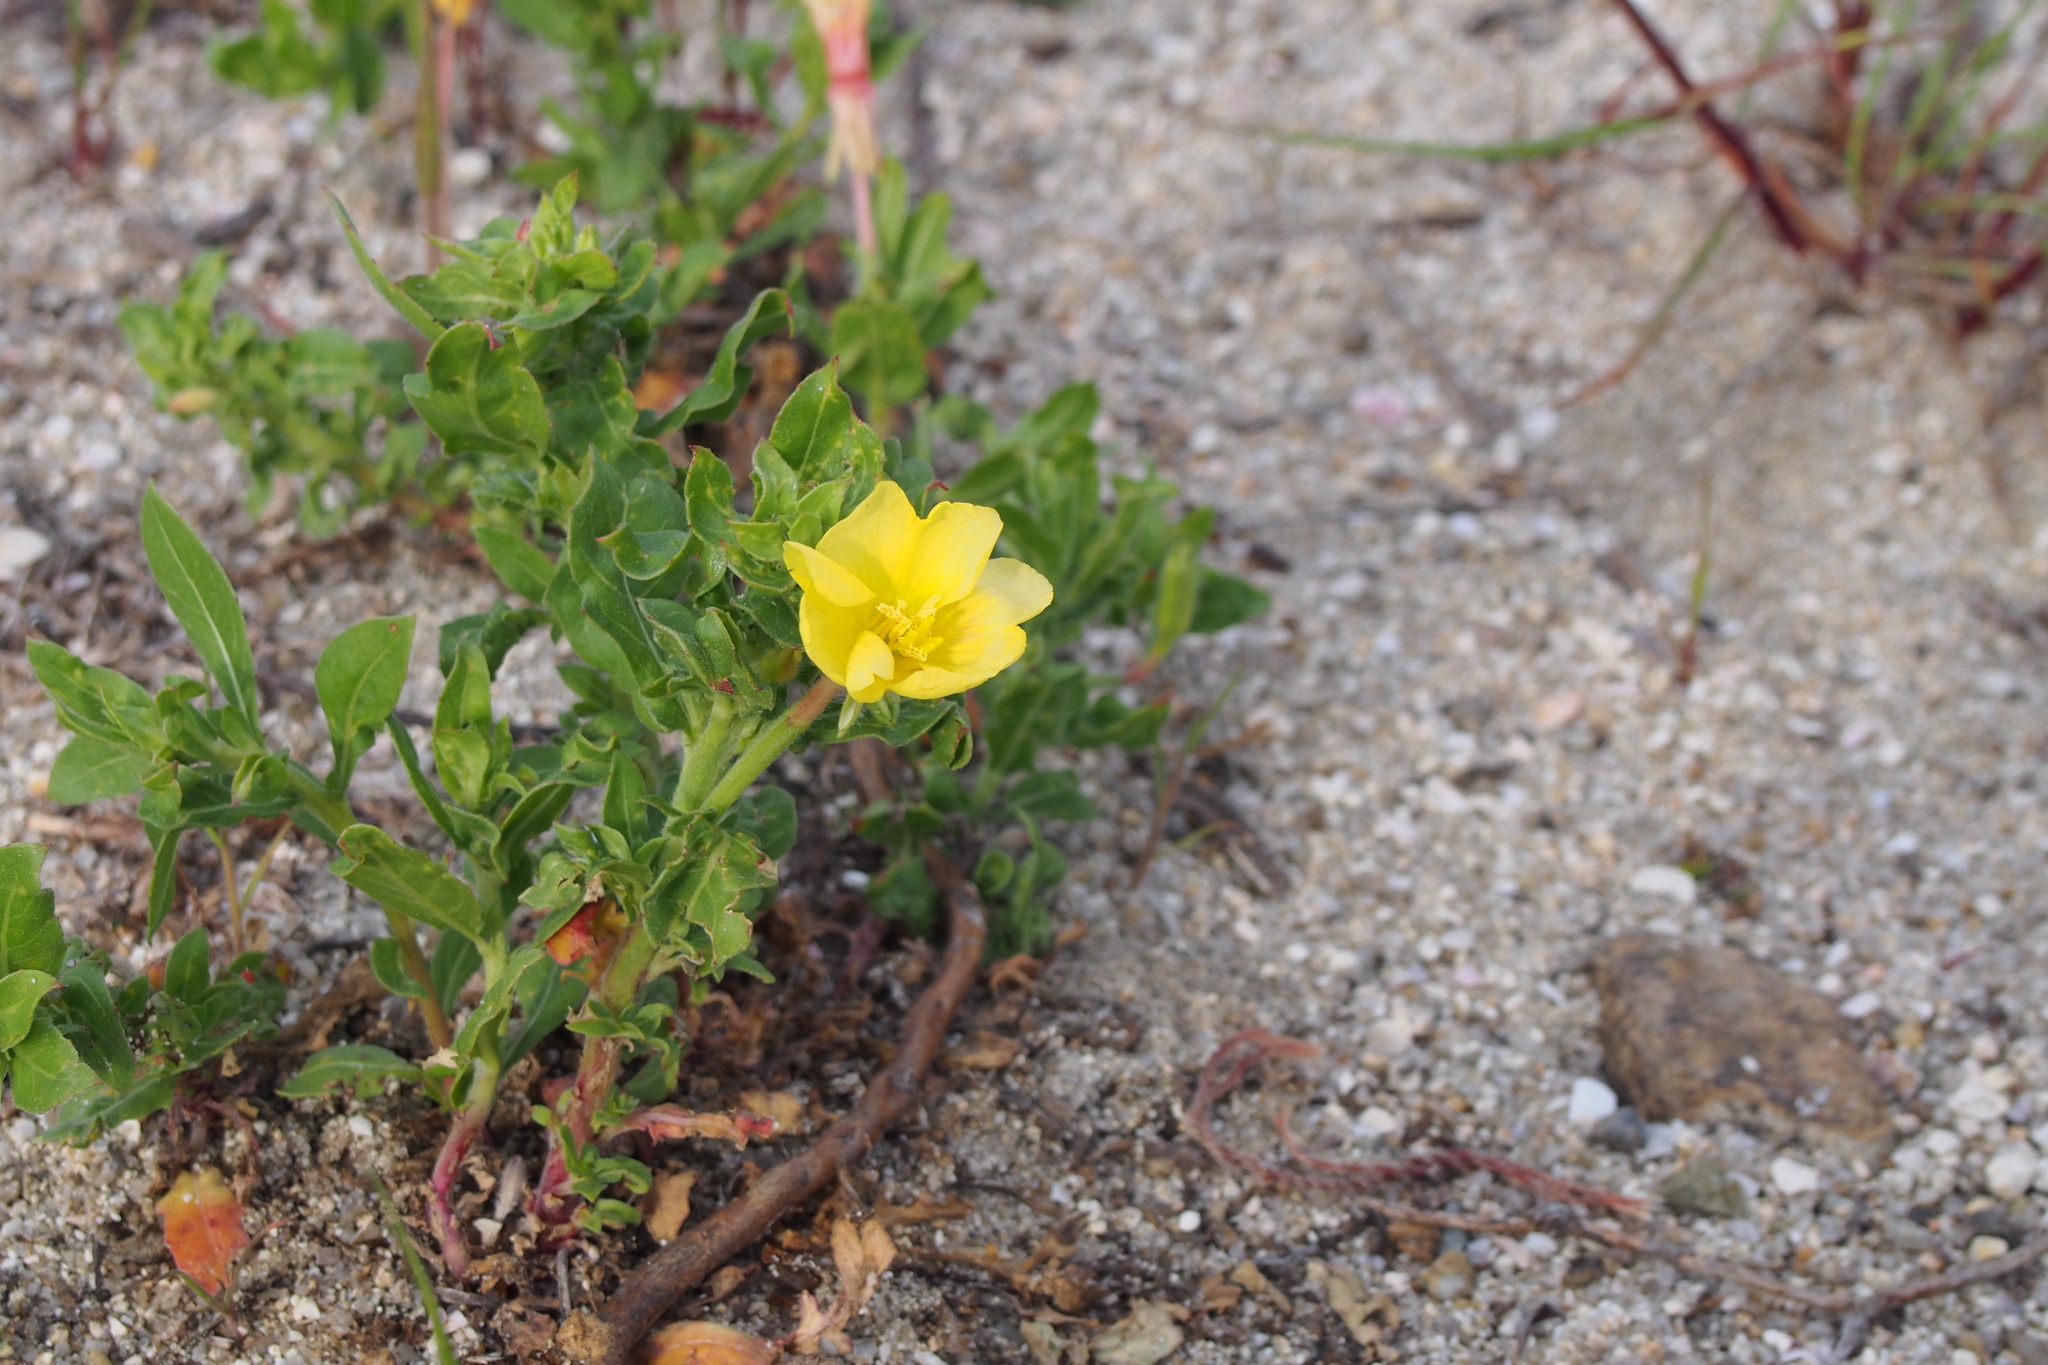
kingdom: Plantae
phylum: Tracheophyta
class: Magnoliopsida
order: Myrtales
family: Onagraceae
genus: Oenothera
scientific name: Oenothera laciniata
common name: Cut-leaved evening-primrose
